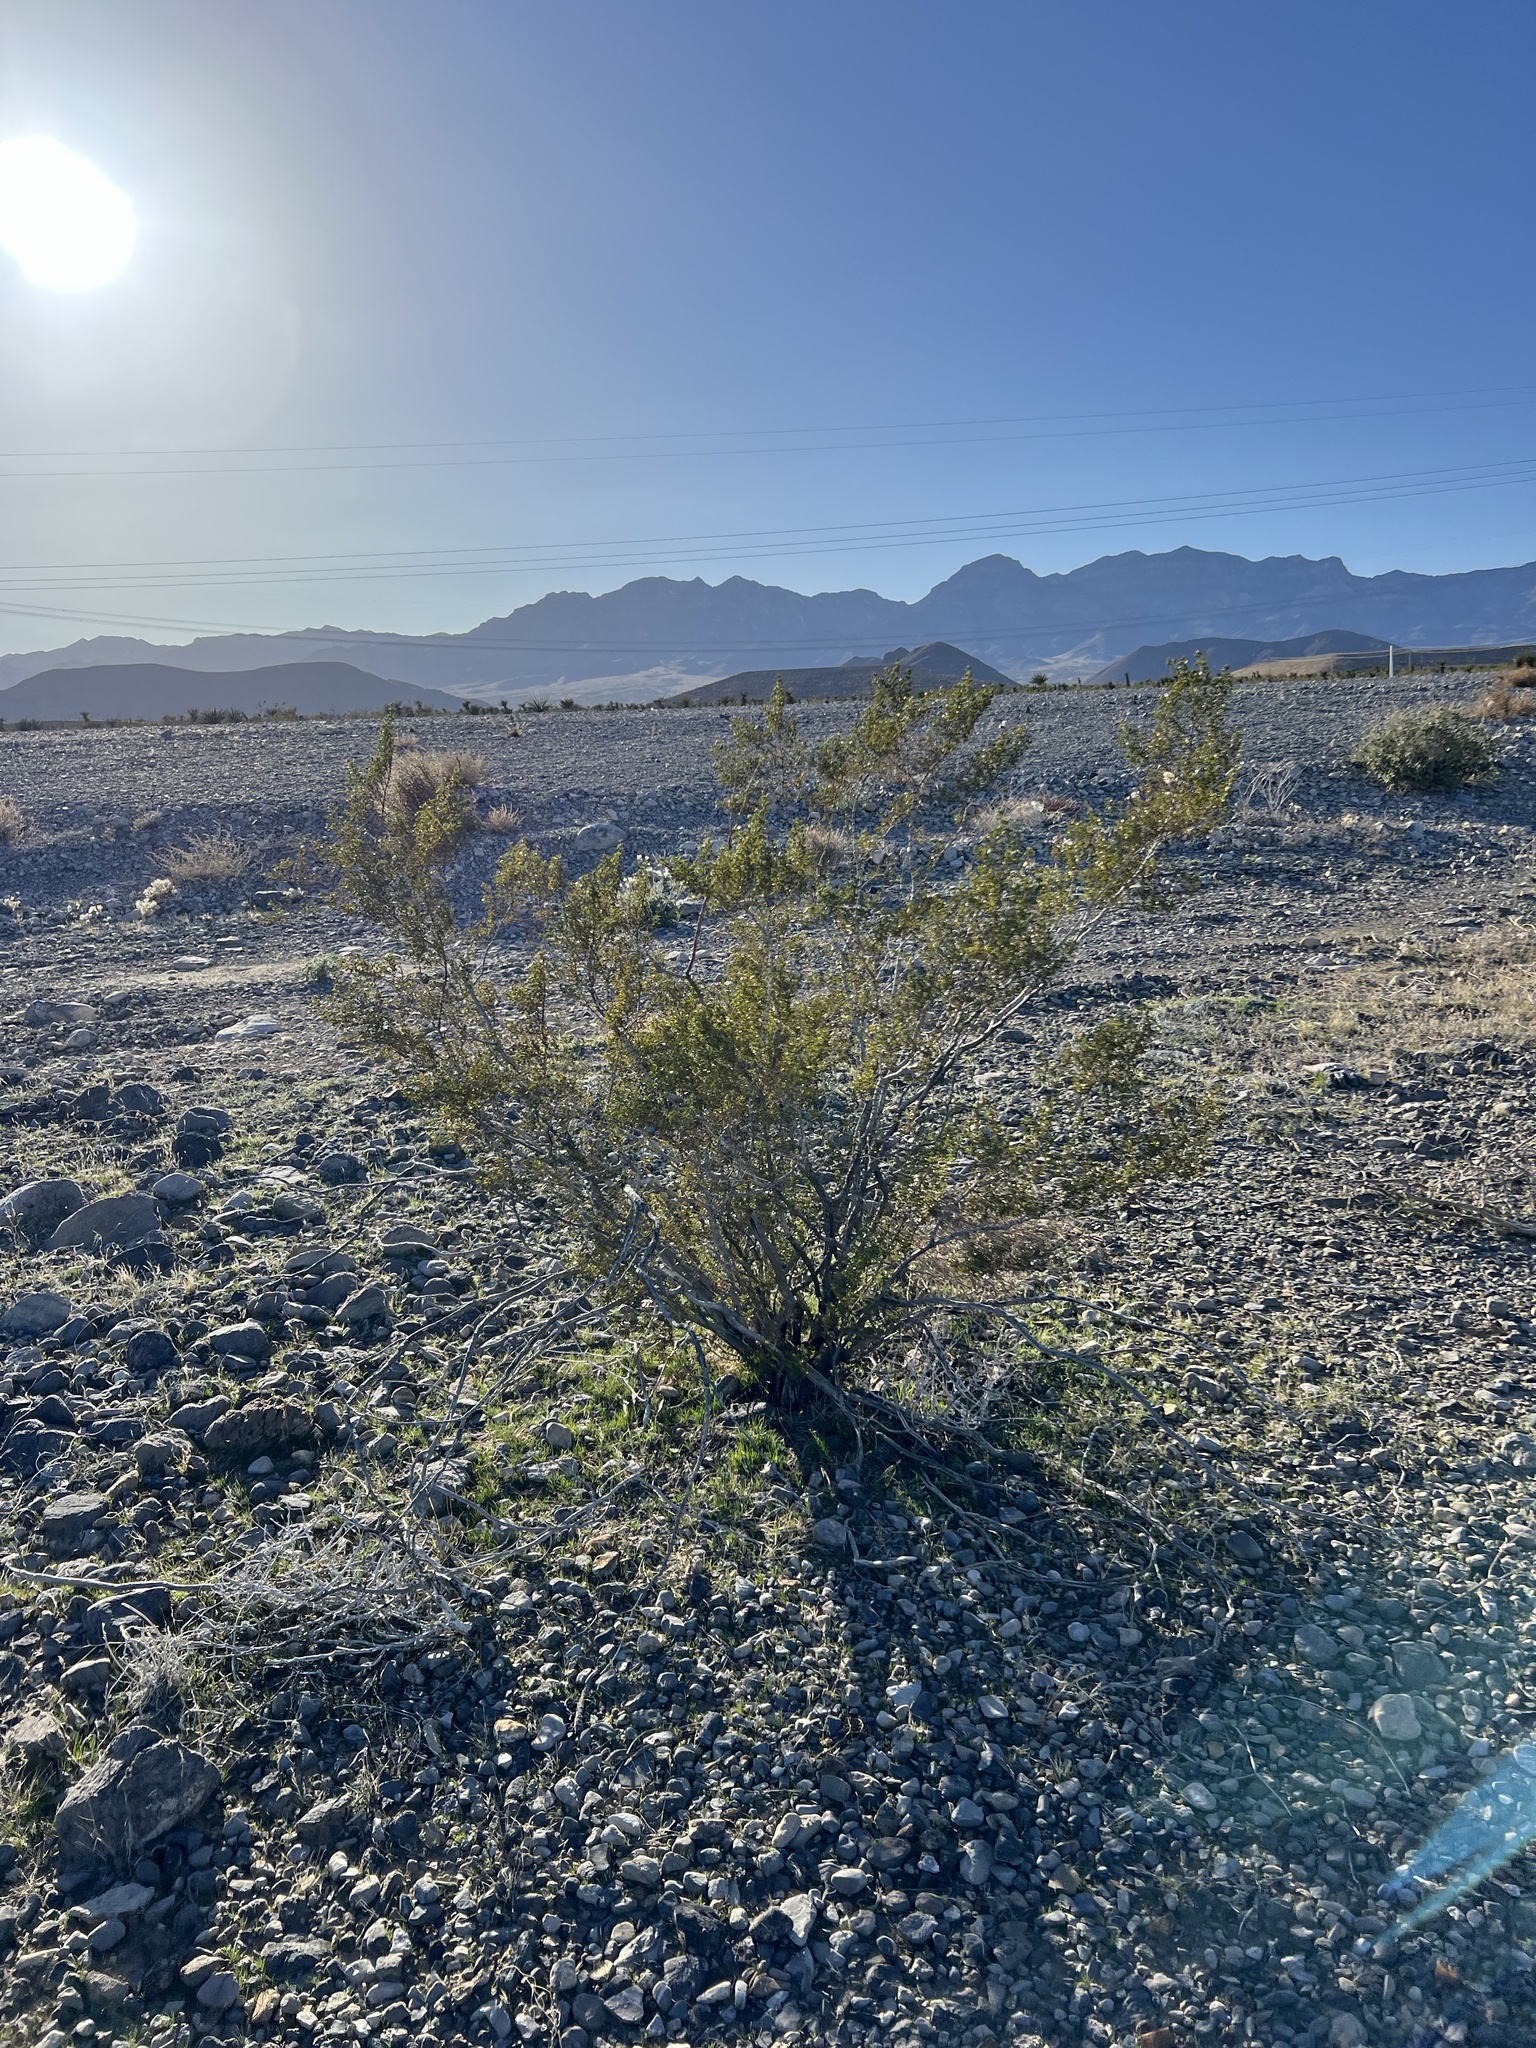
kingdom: Plantae
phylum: Tracheophyta
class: Magnoliopsida
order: Zygophyllales
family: Zygophyllaceae
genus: Larrea
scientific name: Larrea tridentata
